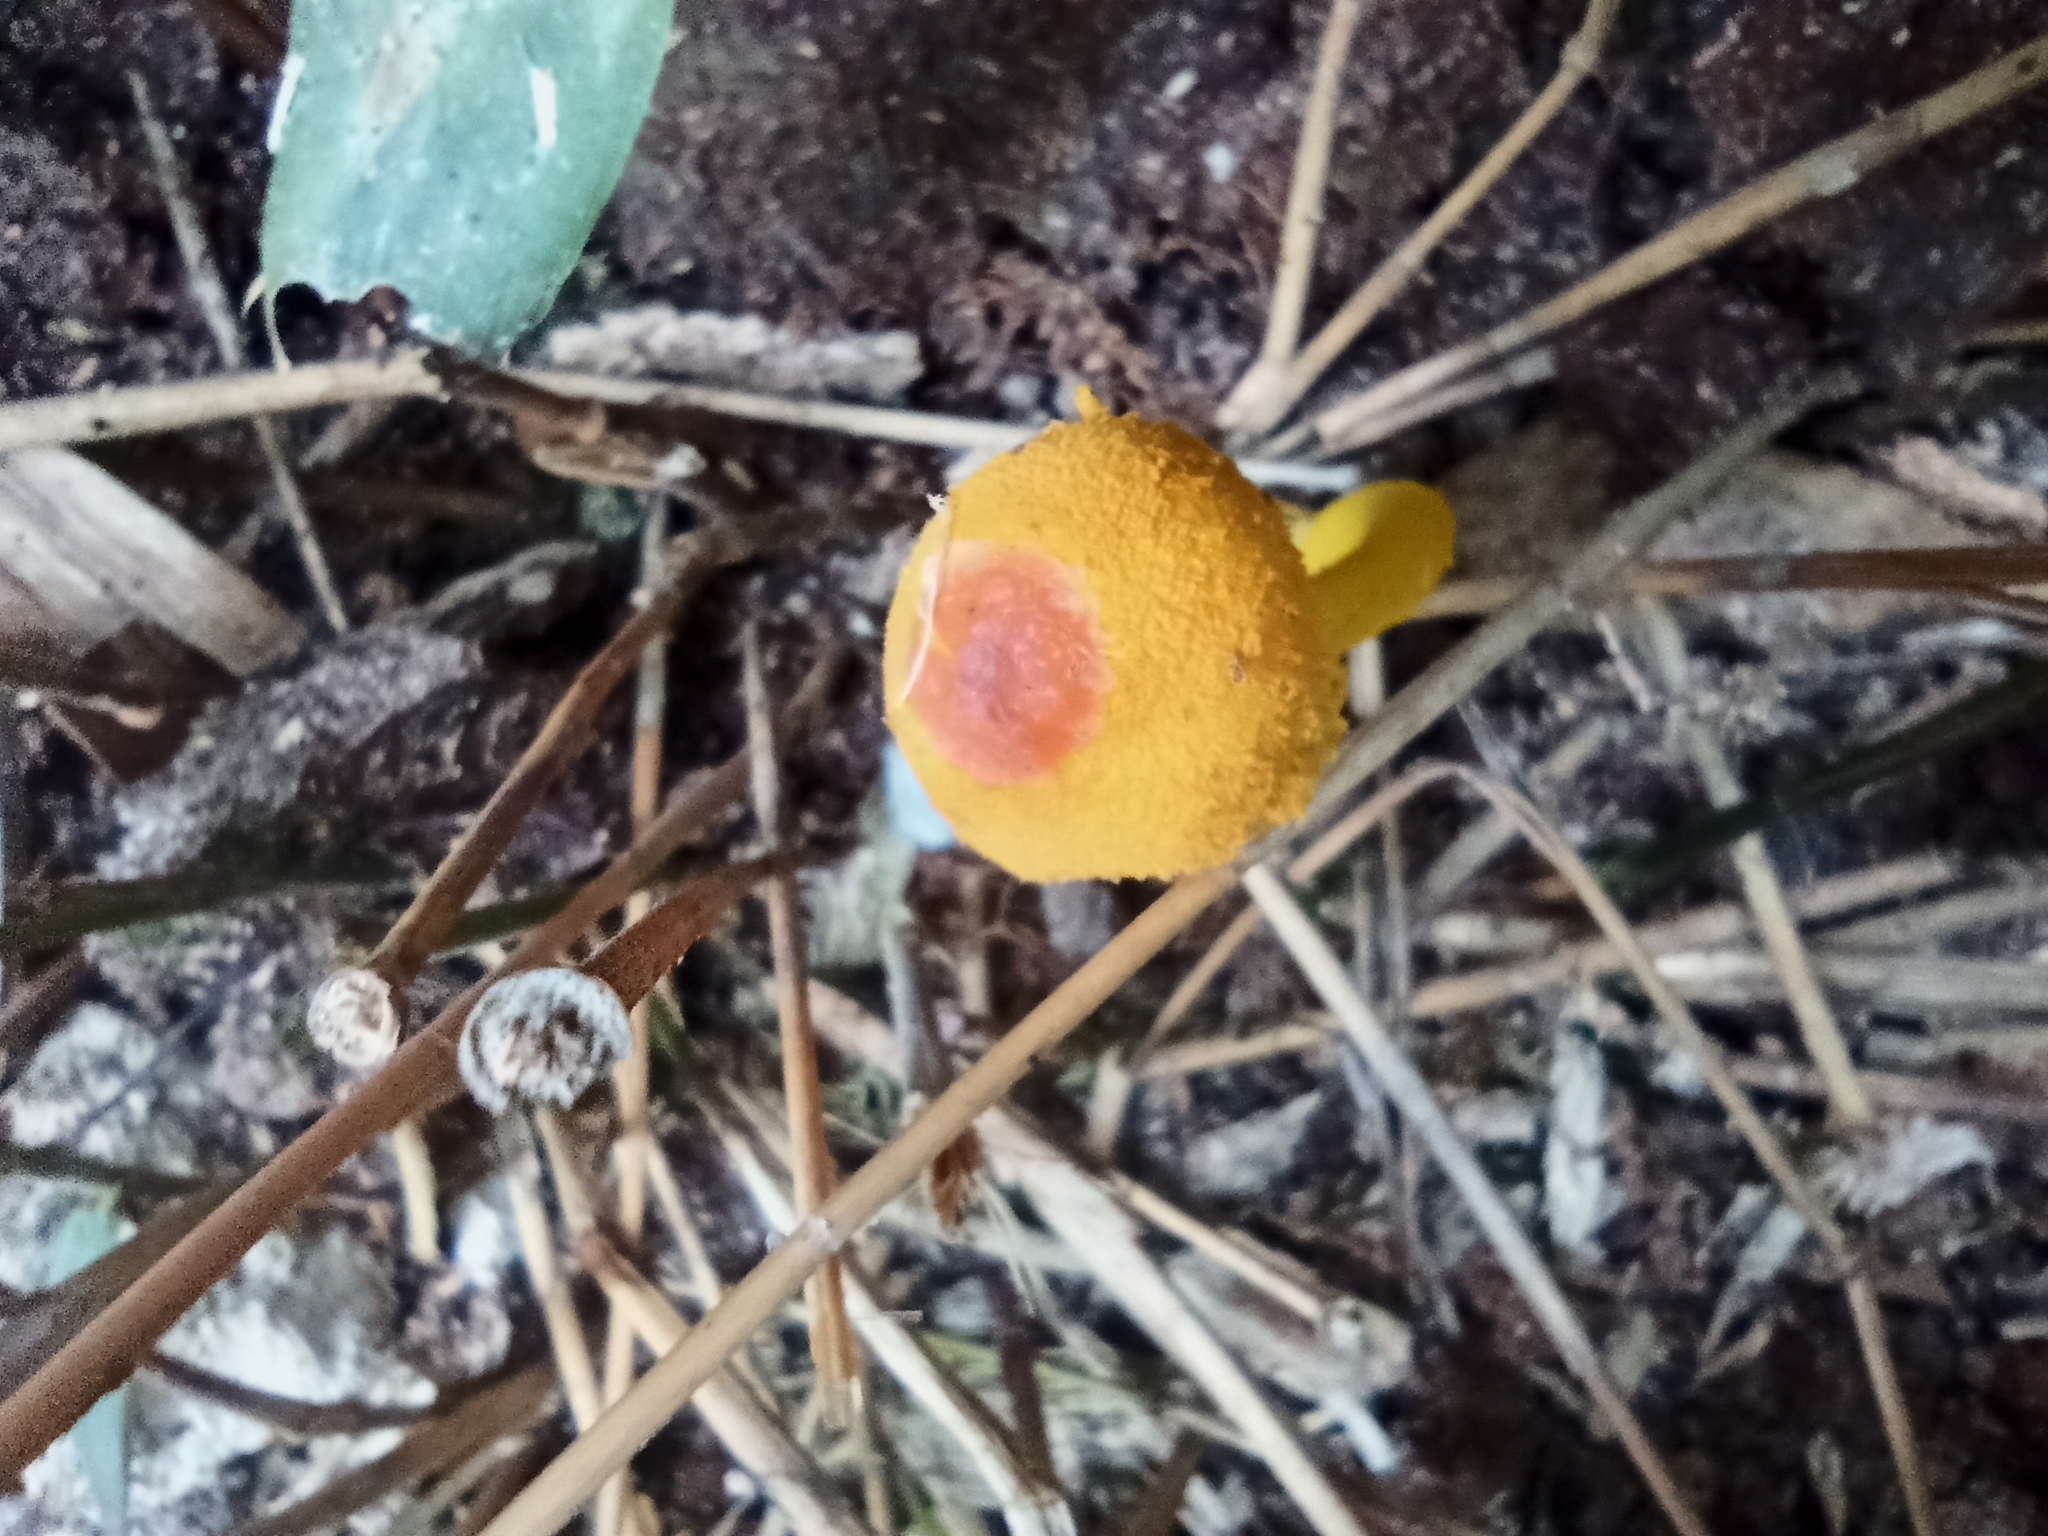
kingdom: Fungi
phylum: Basidiomycota
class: Agaricomycetes
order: Agaricales
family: Agaricaceae
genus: Leucocoprinus
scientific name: Leucocoprinus brunneoluteus
